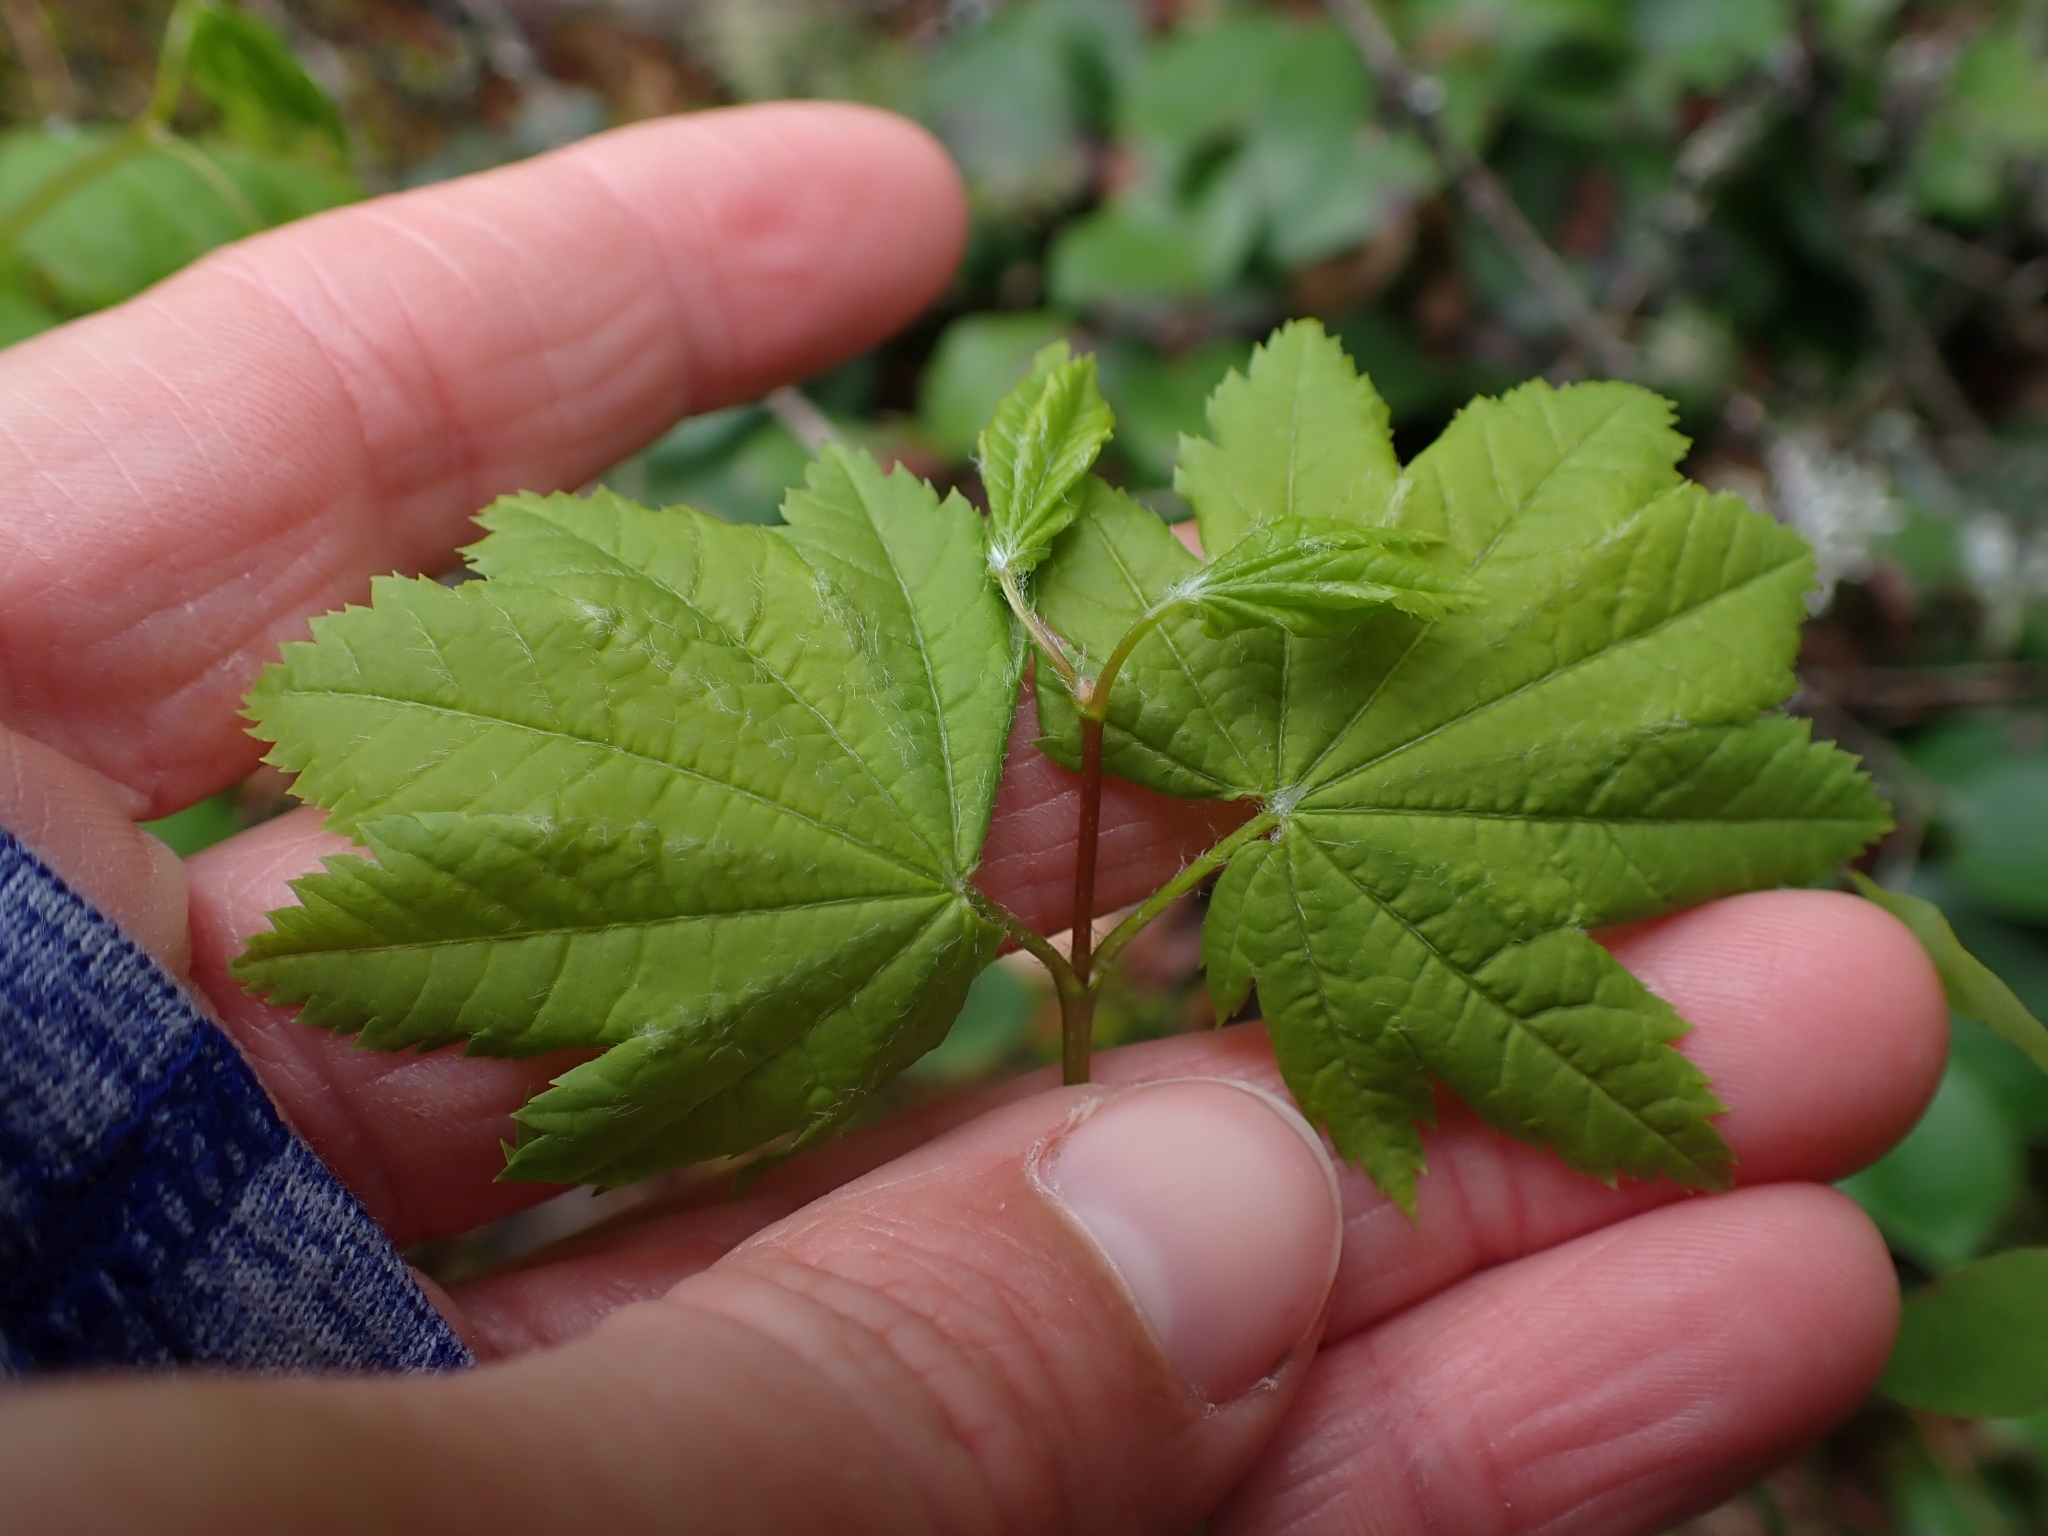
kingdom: Plantae
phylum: Tracheophyta
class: Magnoliopsida
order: Sapindales
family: Sapindaceae
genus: Acer
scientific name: Acer circinatum
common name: Vine maple
